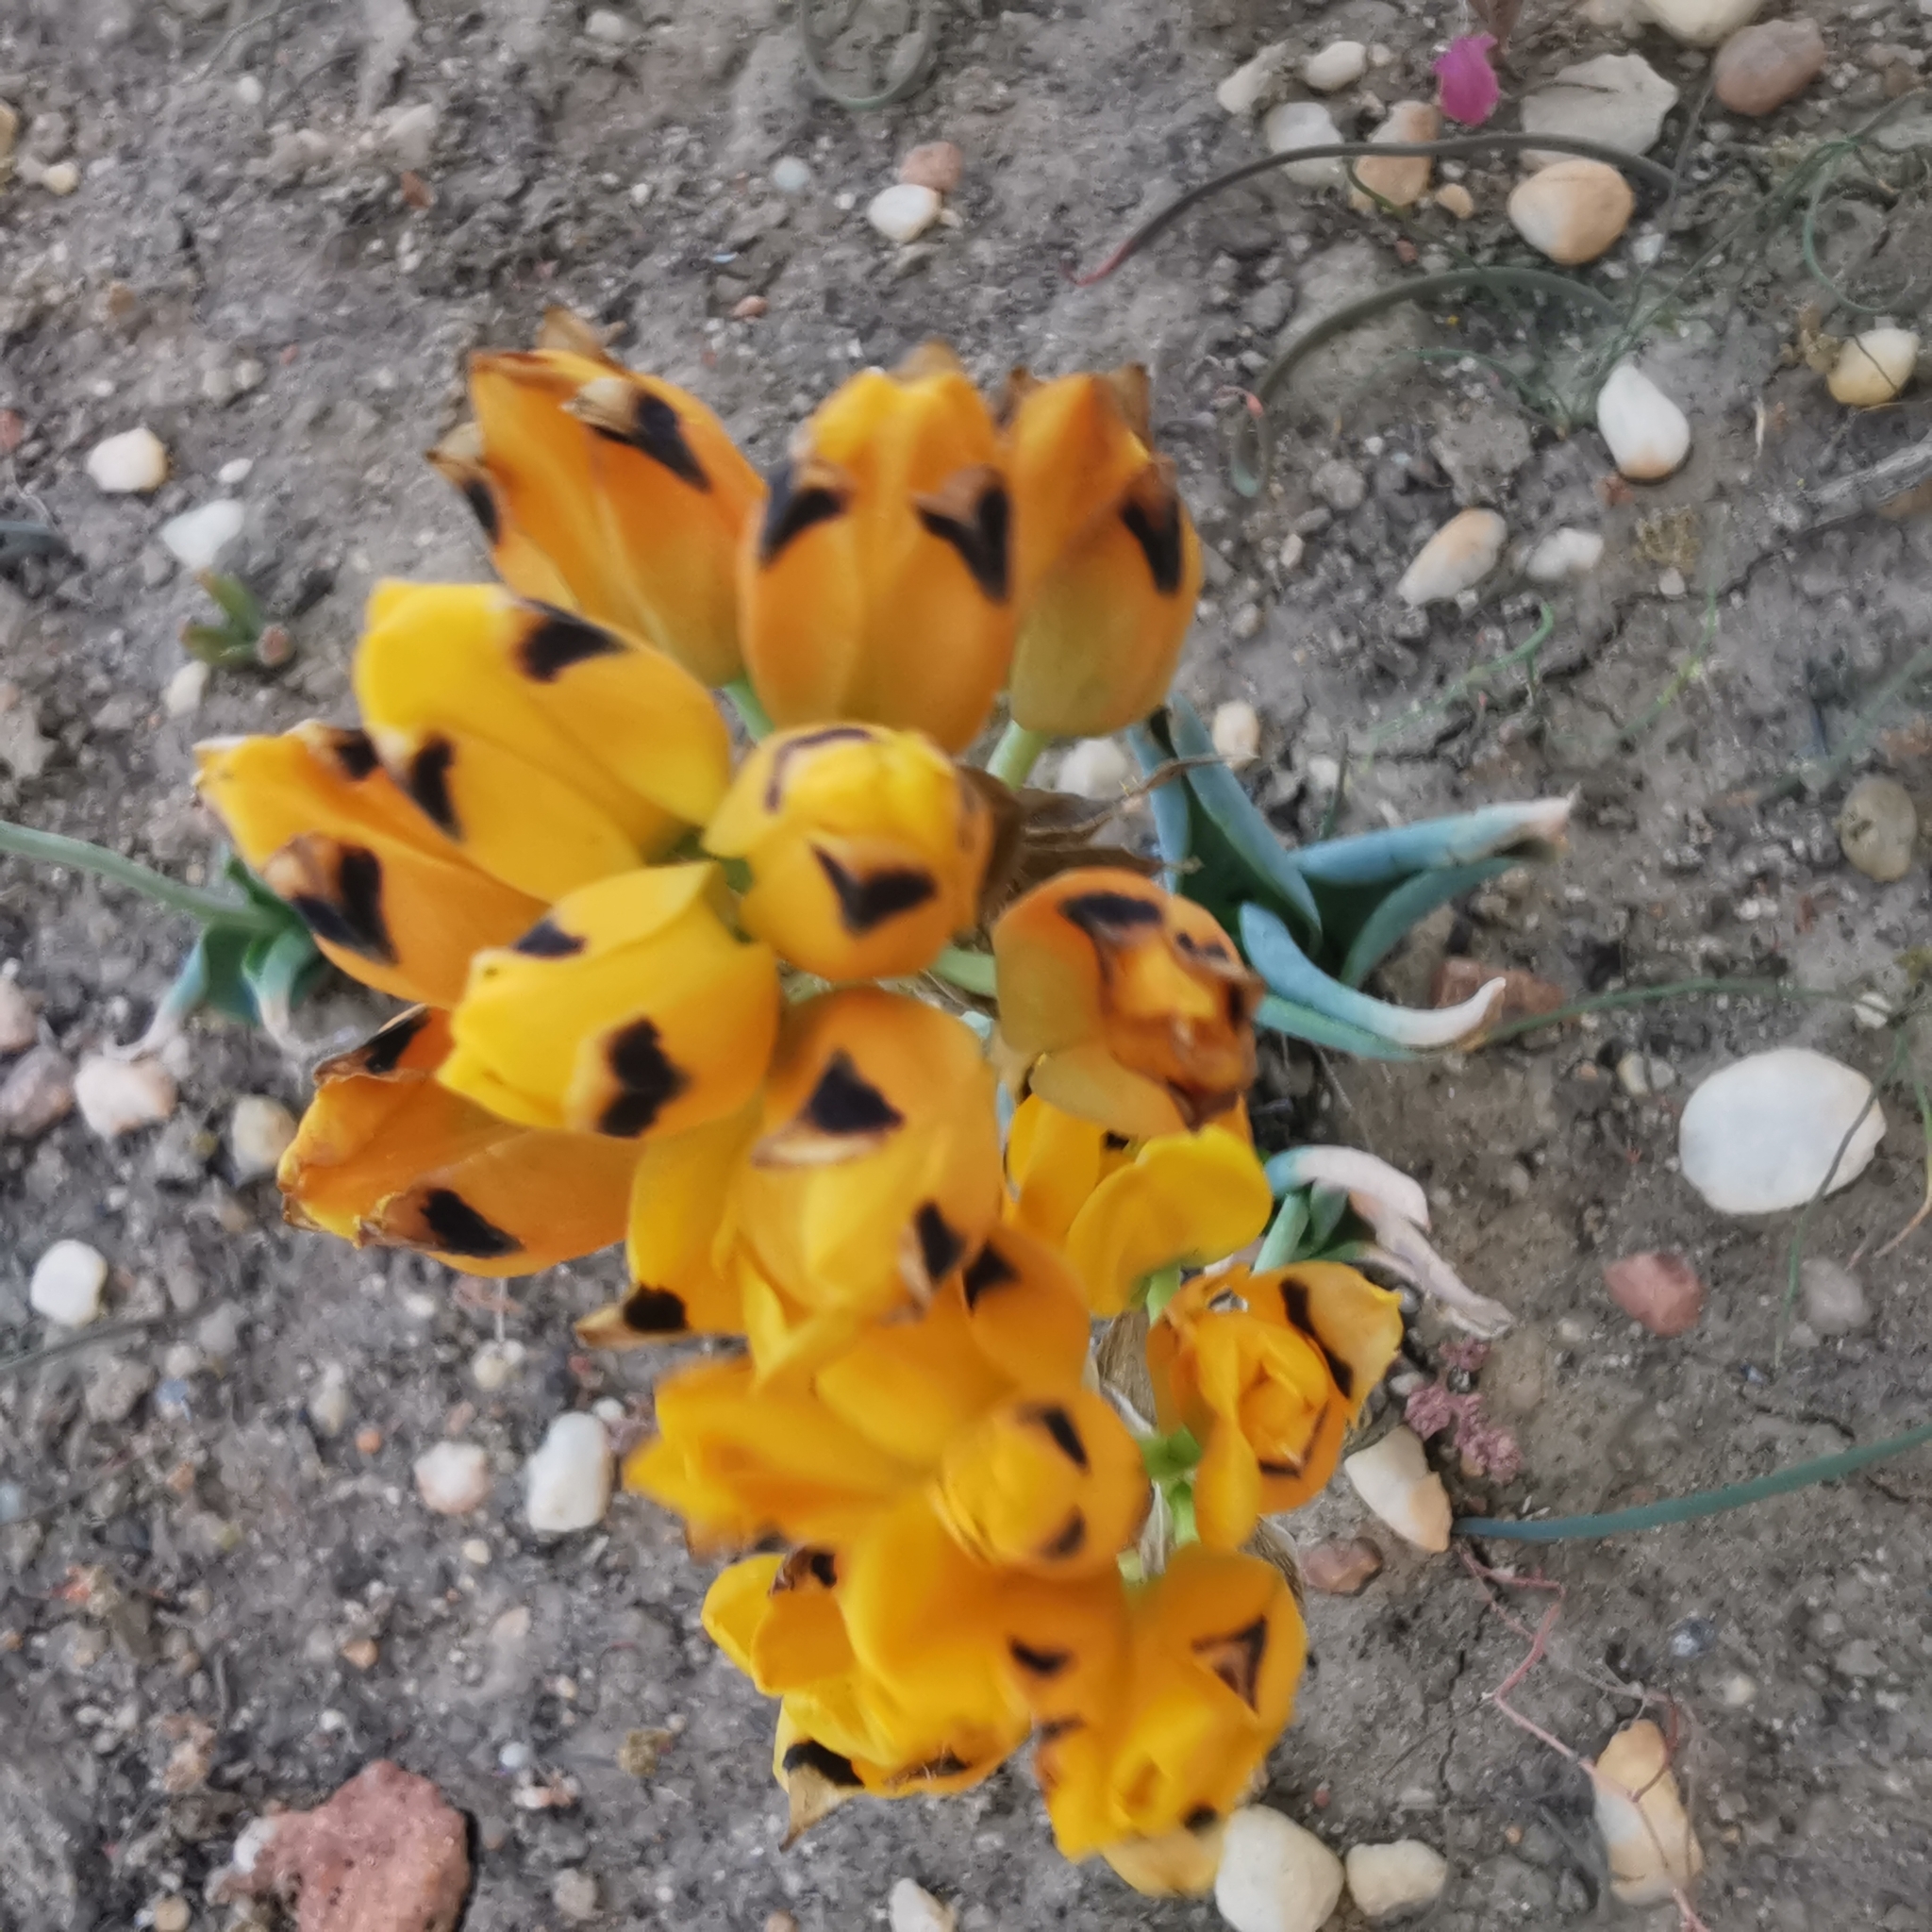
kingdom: Plantae
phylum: Tracheophyta
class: Liliopsida
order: Asparagales
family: Asparagaceae
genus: Ornithogalum
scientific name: Ornithogalum maculatum
